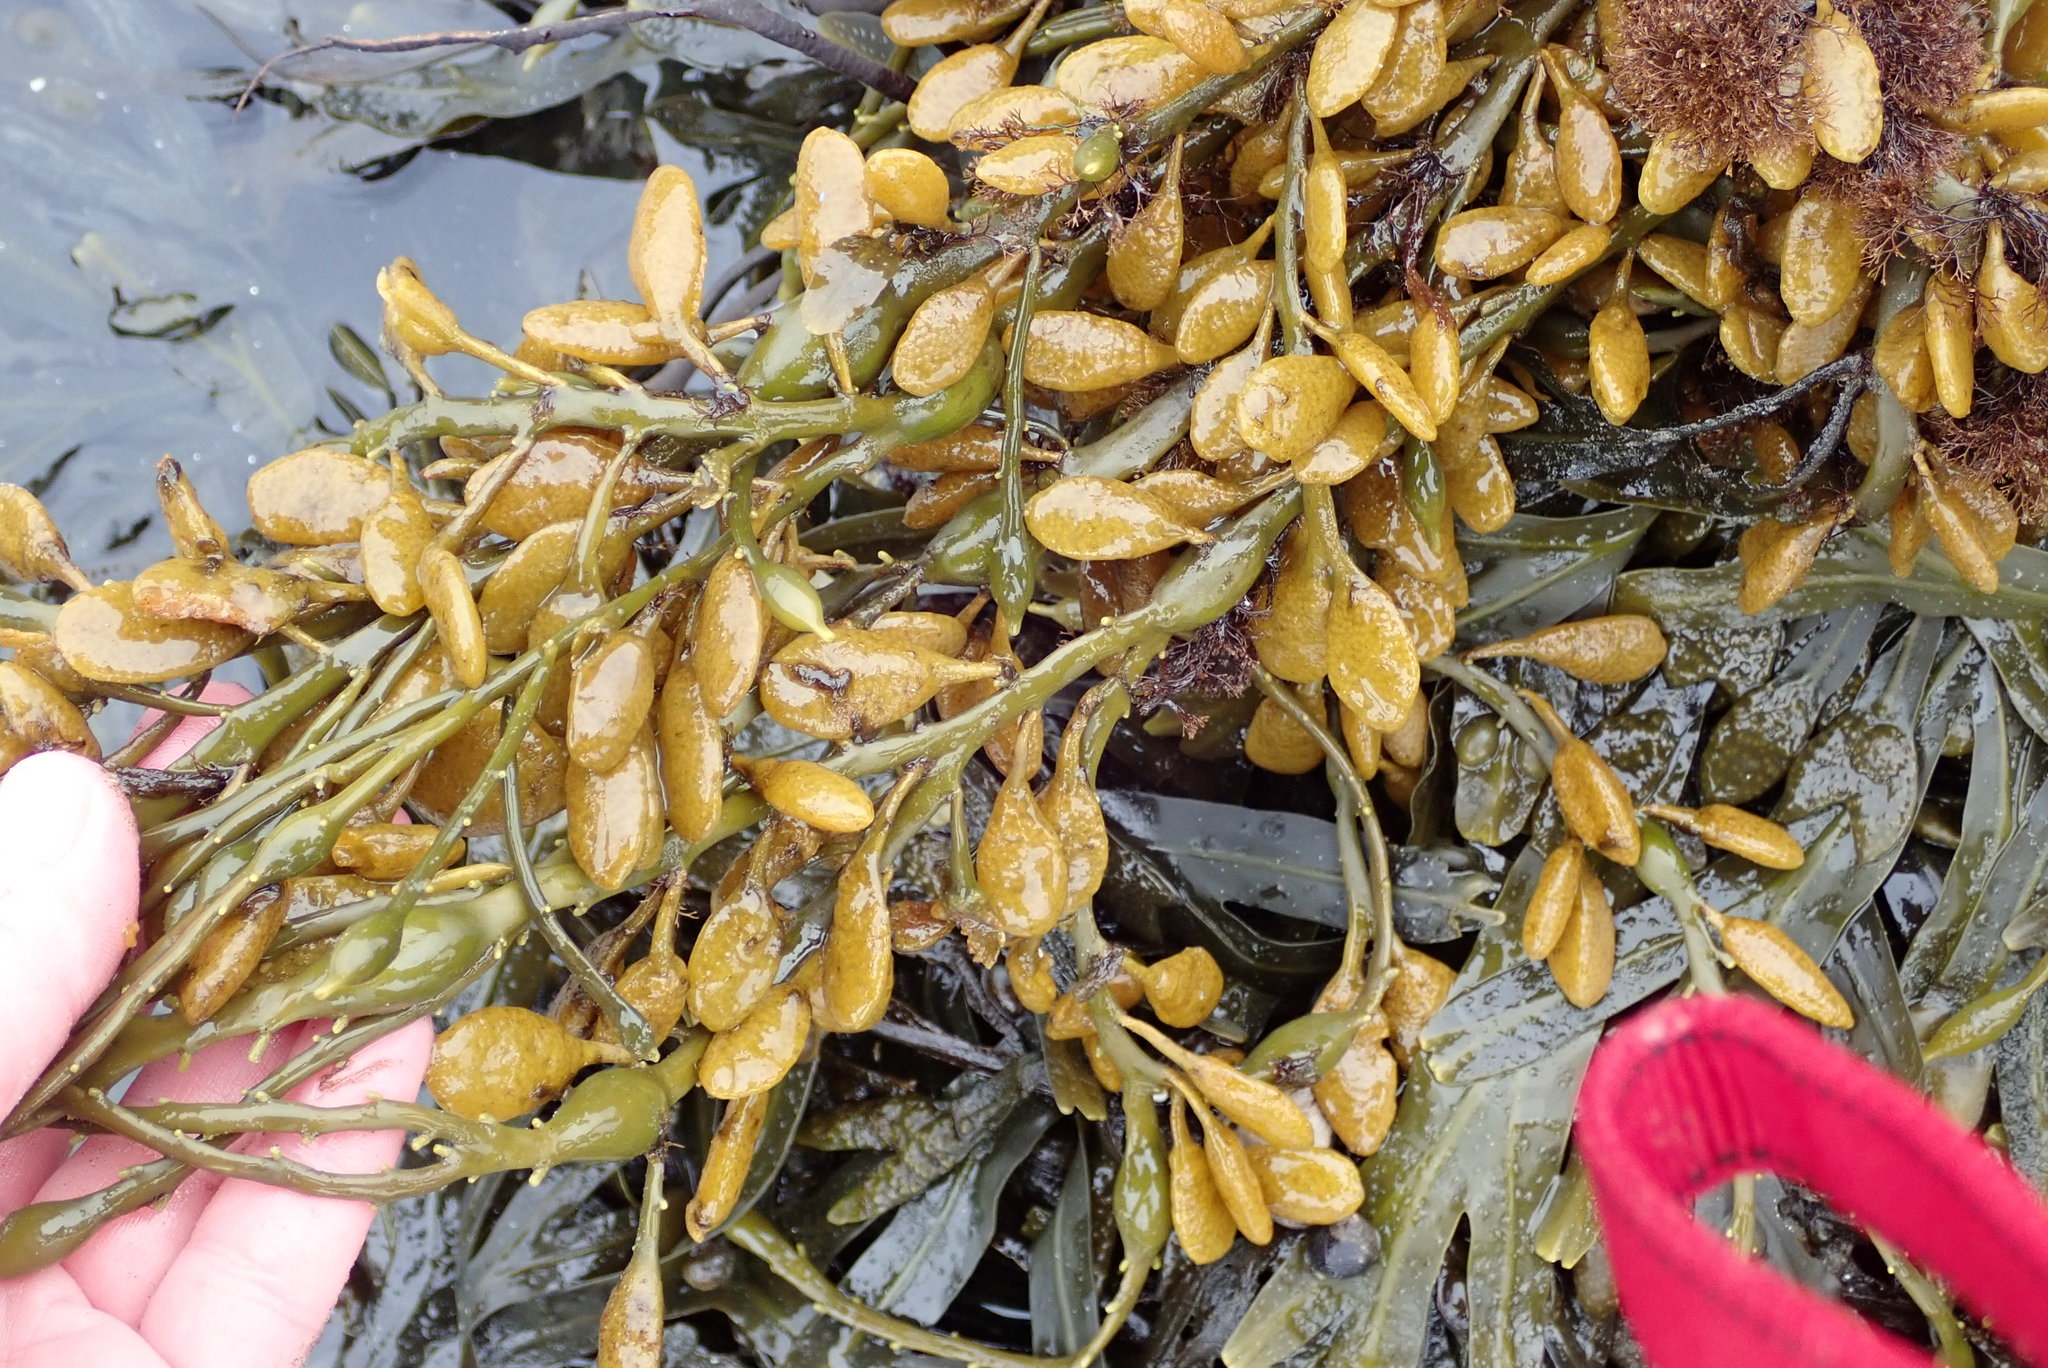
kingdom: Chromista
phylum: Ochrophyta
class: Phaeophyceae
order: Fucales
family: Fucaceae
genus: Ascophyllum
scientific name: Ascophyllum nodosum
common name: Knotted wrack
